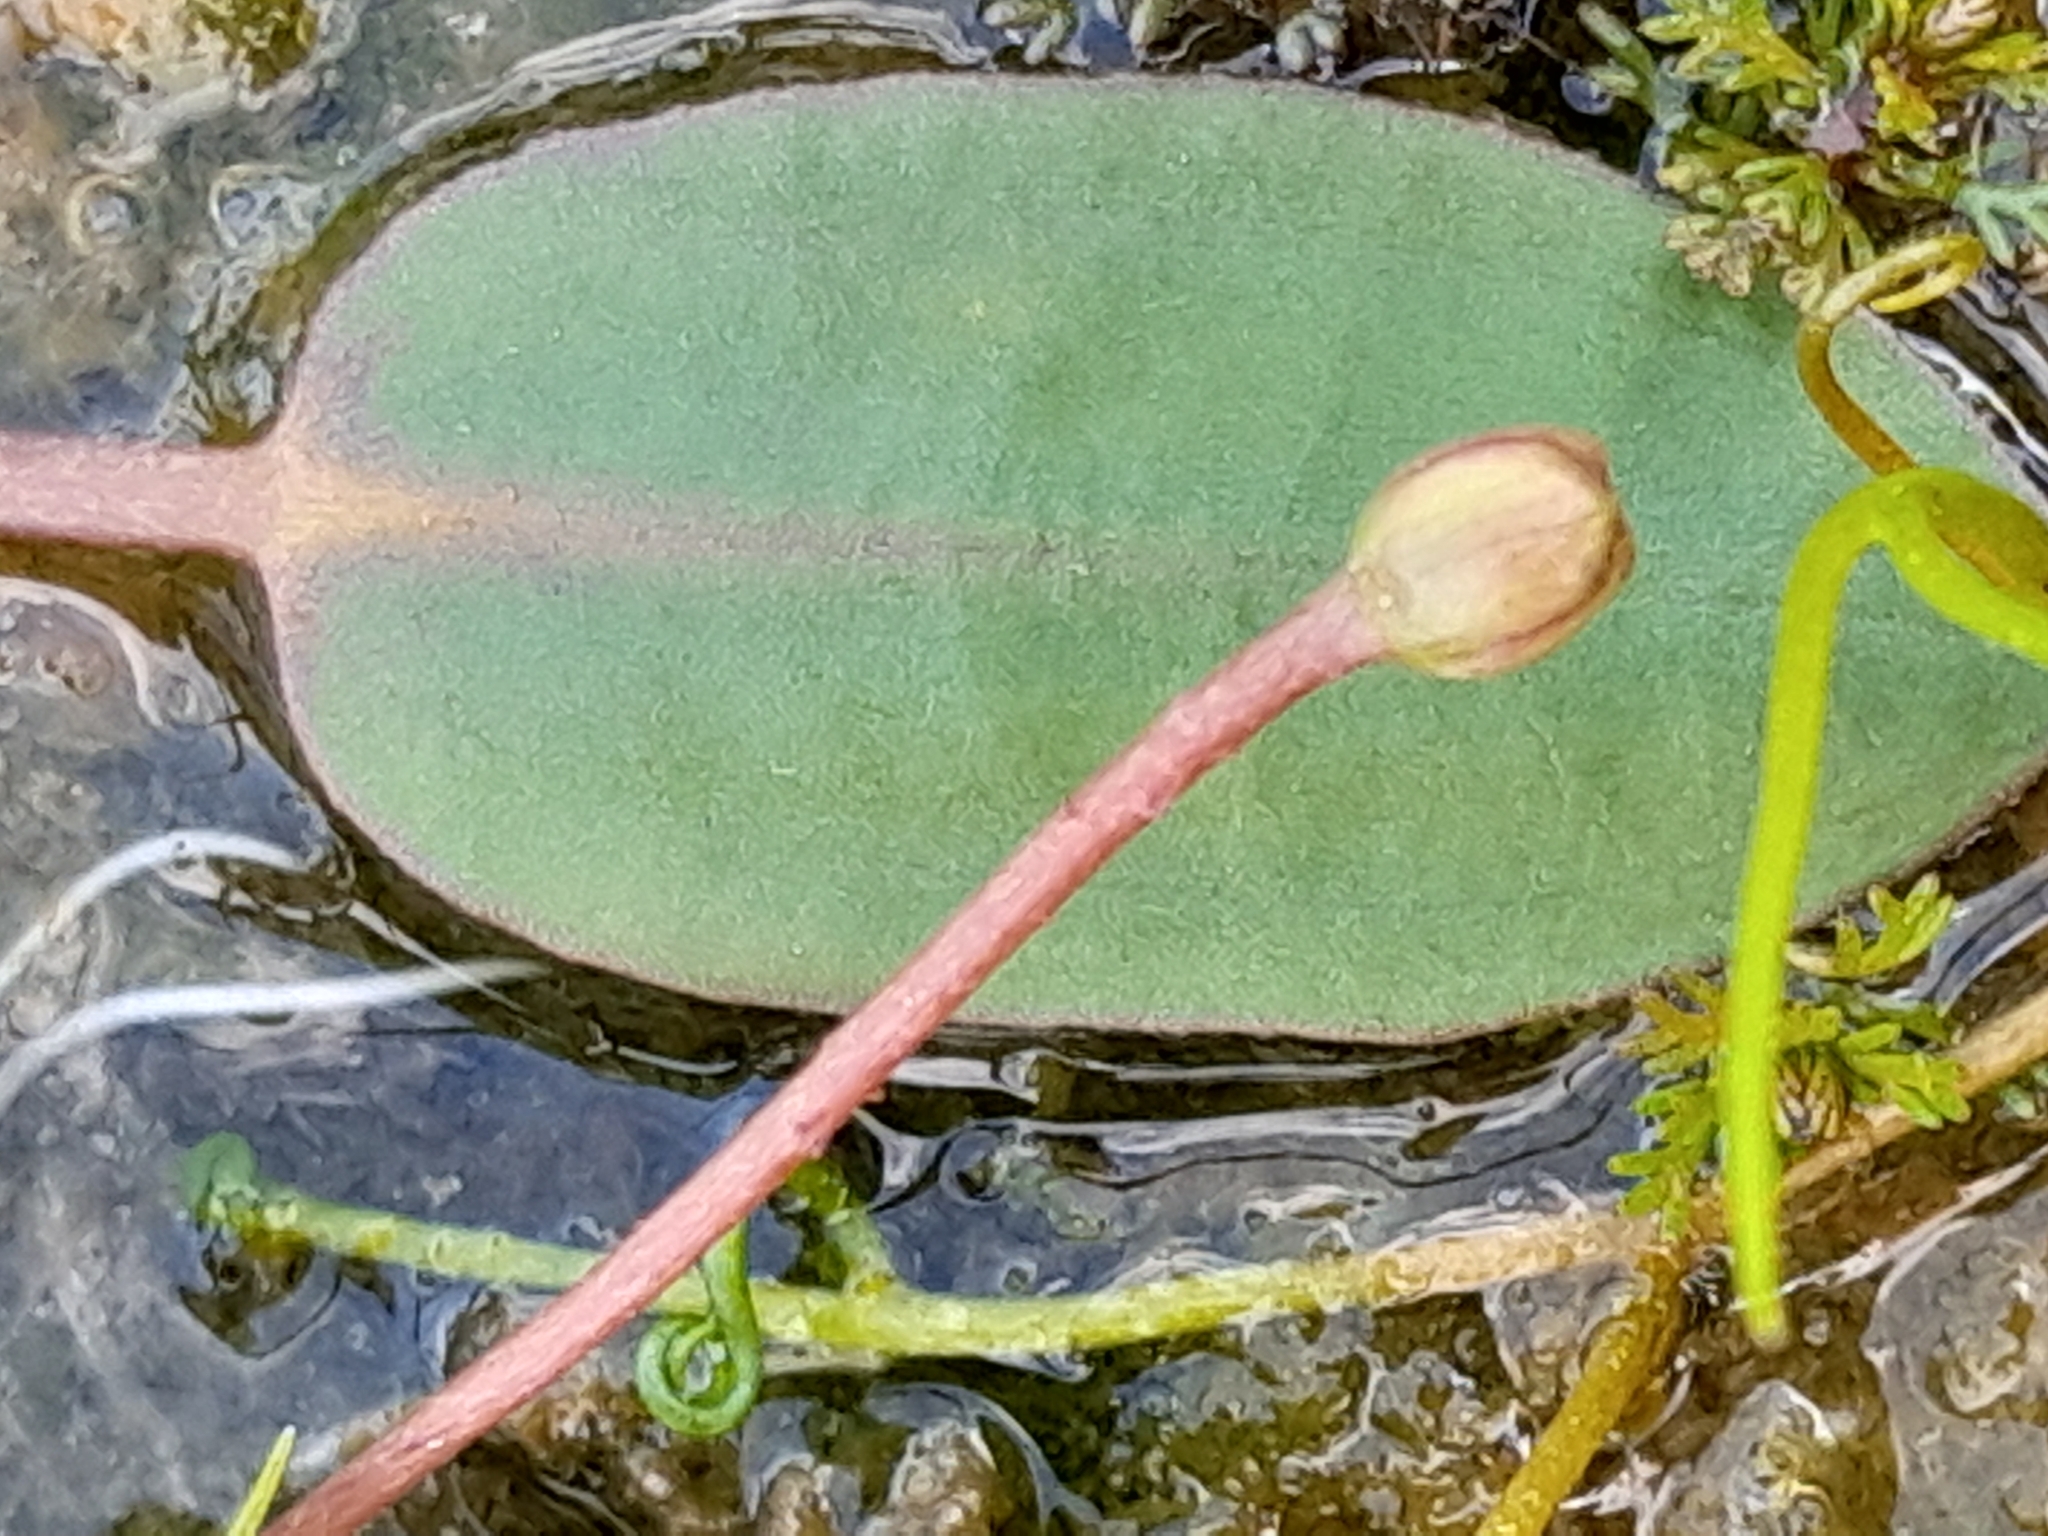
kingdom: Plantae
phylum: Tracheophyta
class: Liliopsida
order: Alismatales
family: Alismataceae
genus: Luronium
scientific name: Luronium natans
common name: Floating water-plantain
